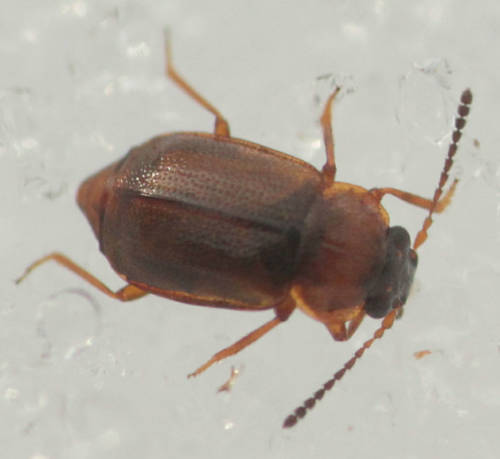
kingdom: Animalia
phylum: Arthropoda
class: Insecta
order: Coleoptera
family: Staphylinidae
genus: Anthobium
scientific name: Anthobium atrocephalum
